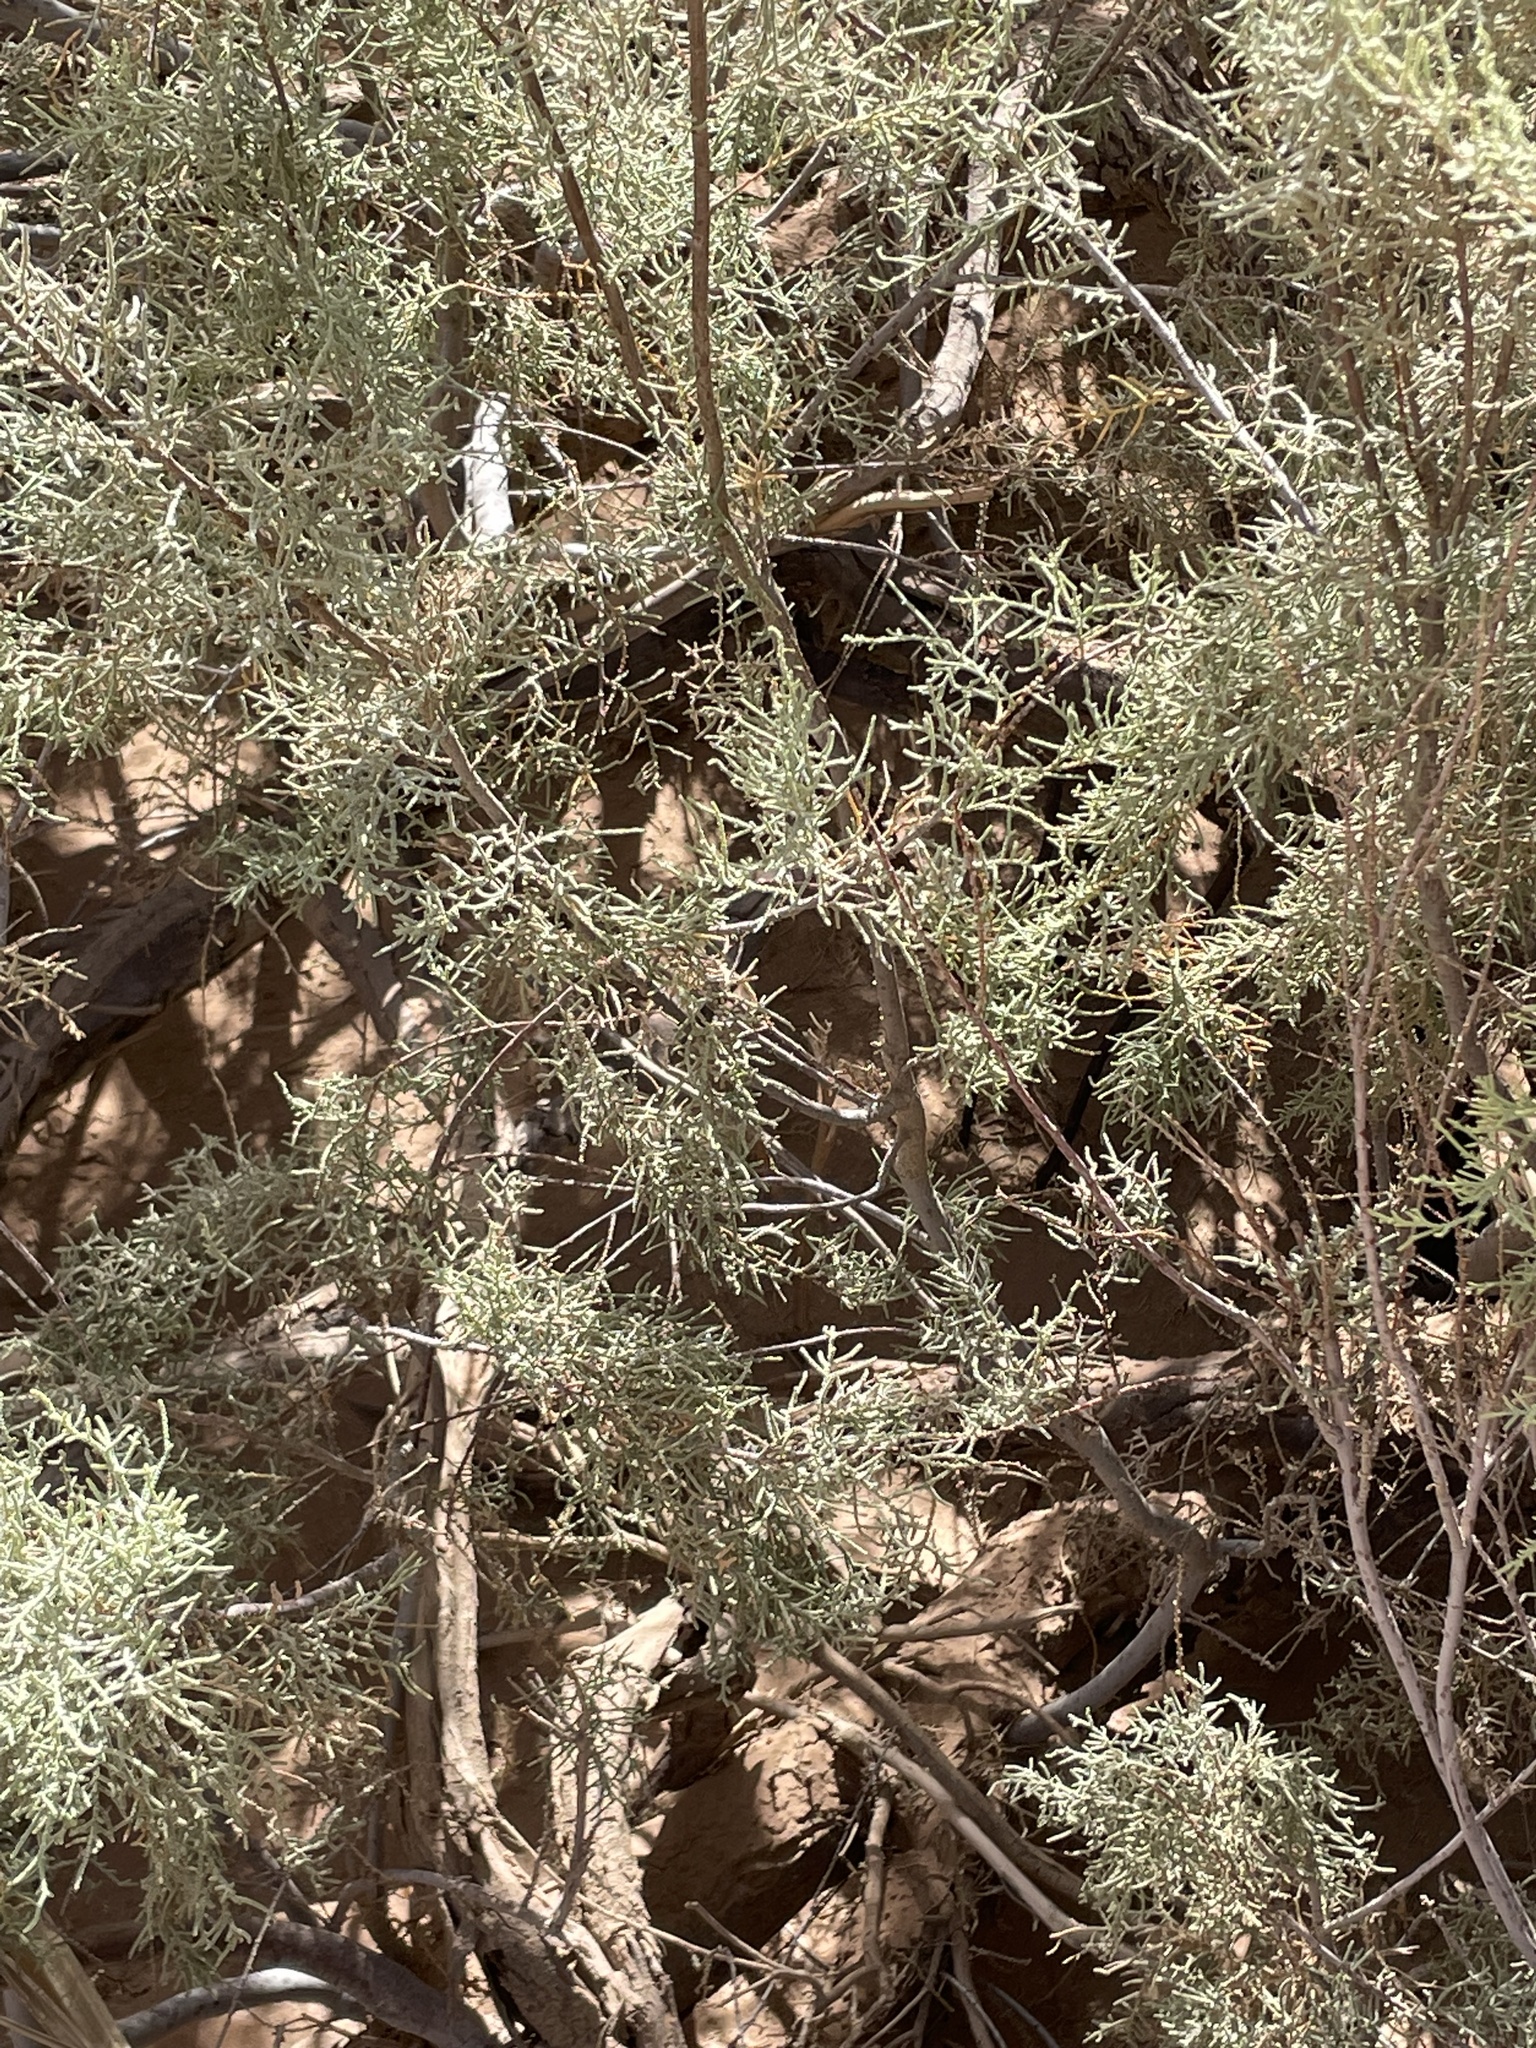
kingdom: Plantae
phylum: Tracheophyta
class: Magnoliopsida
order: Caryophyllales
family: Tamaricaceae
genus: Tamarix
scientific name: Tamarix amplexicaulis
